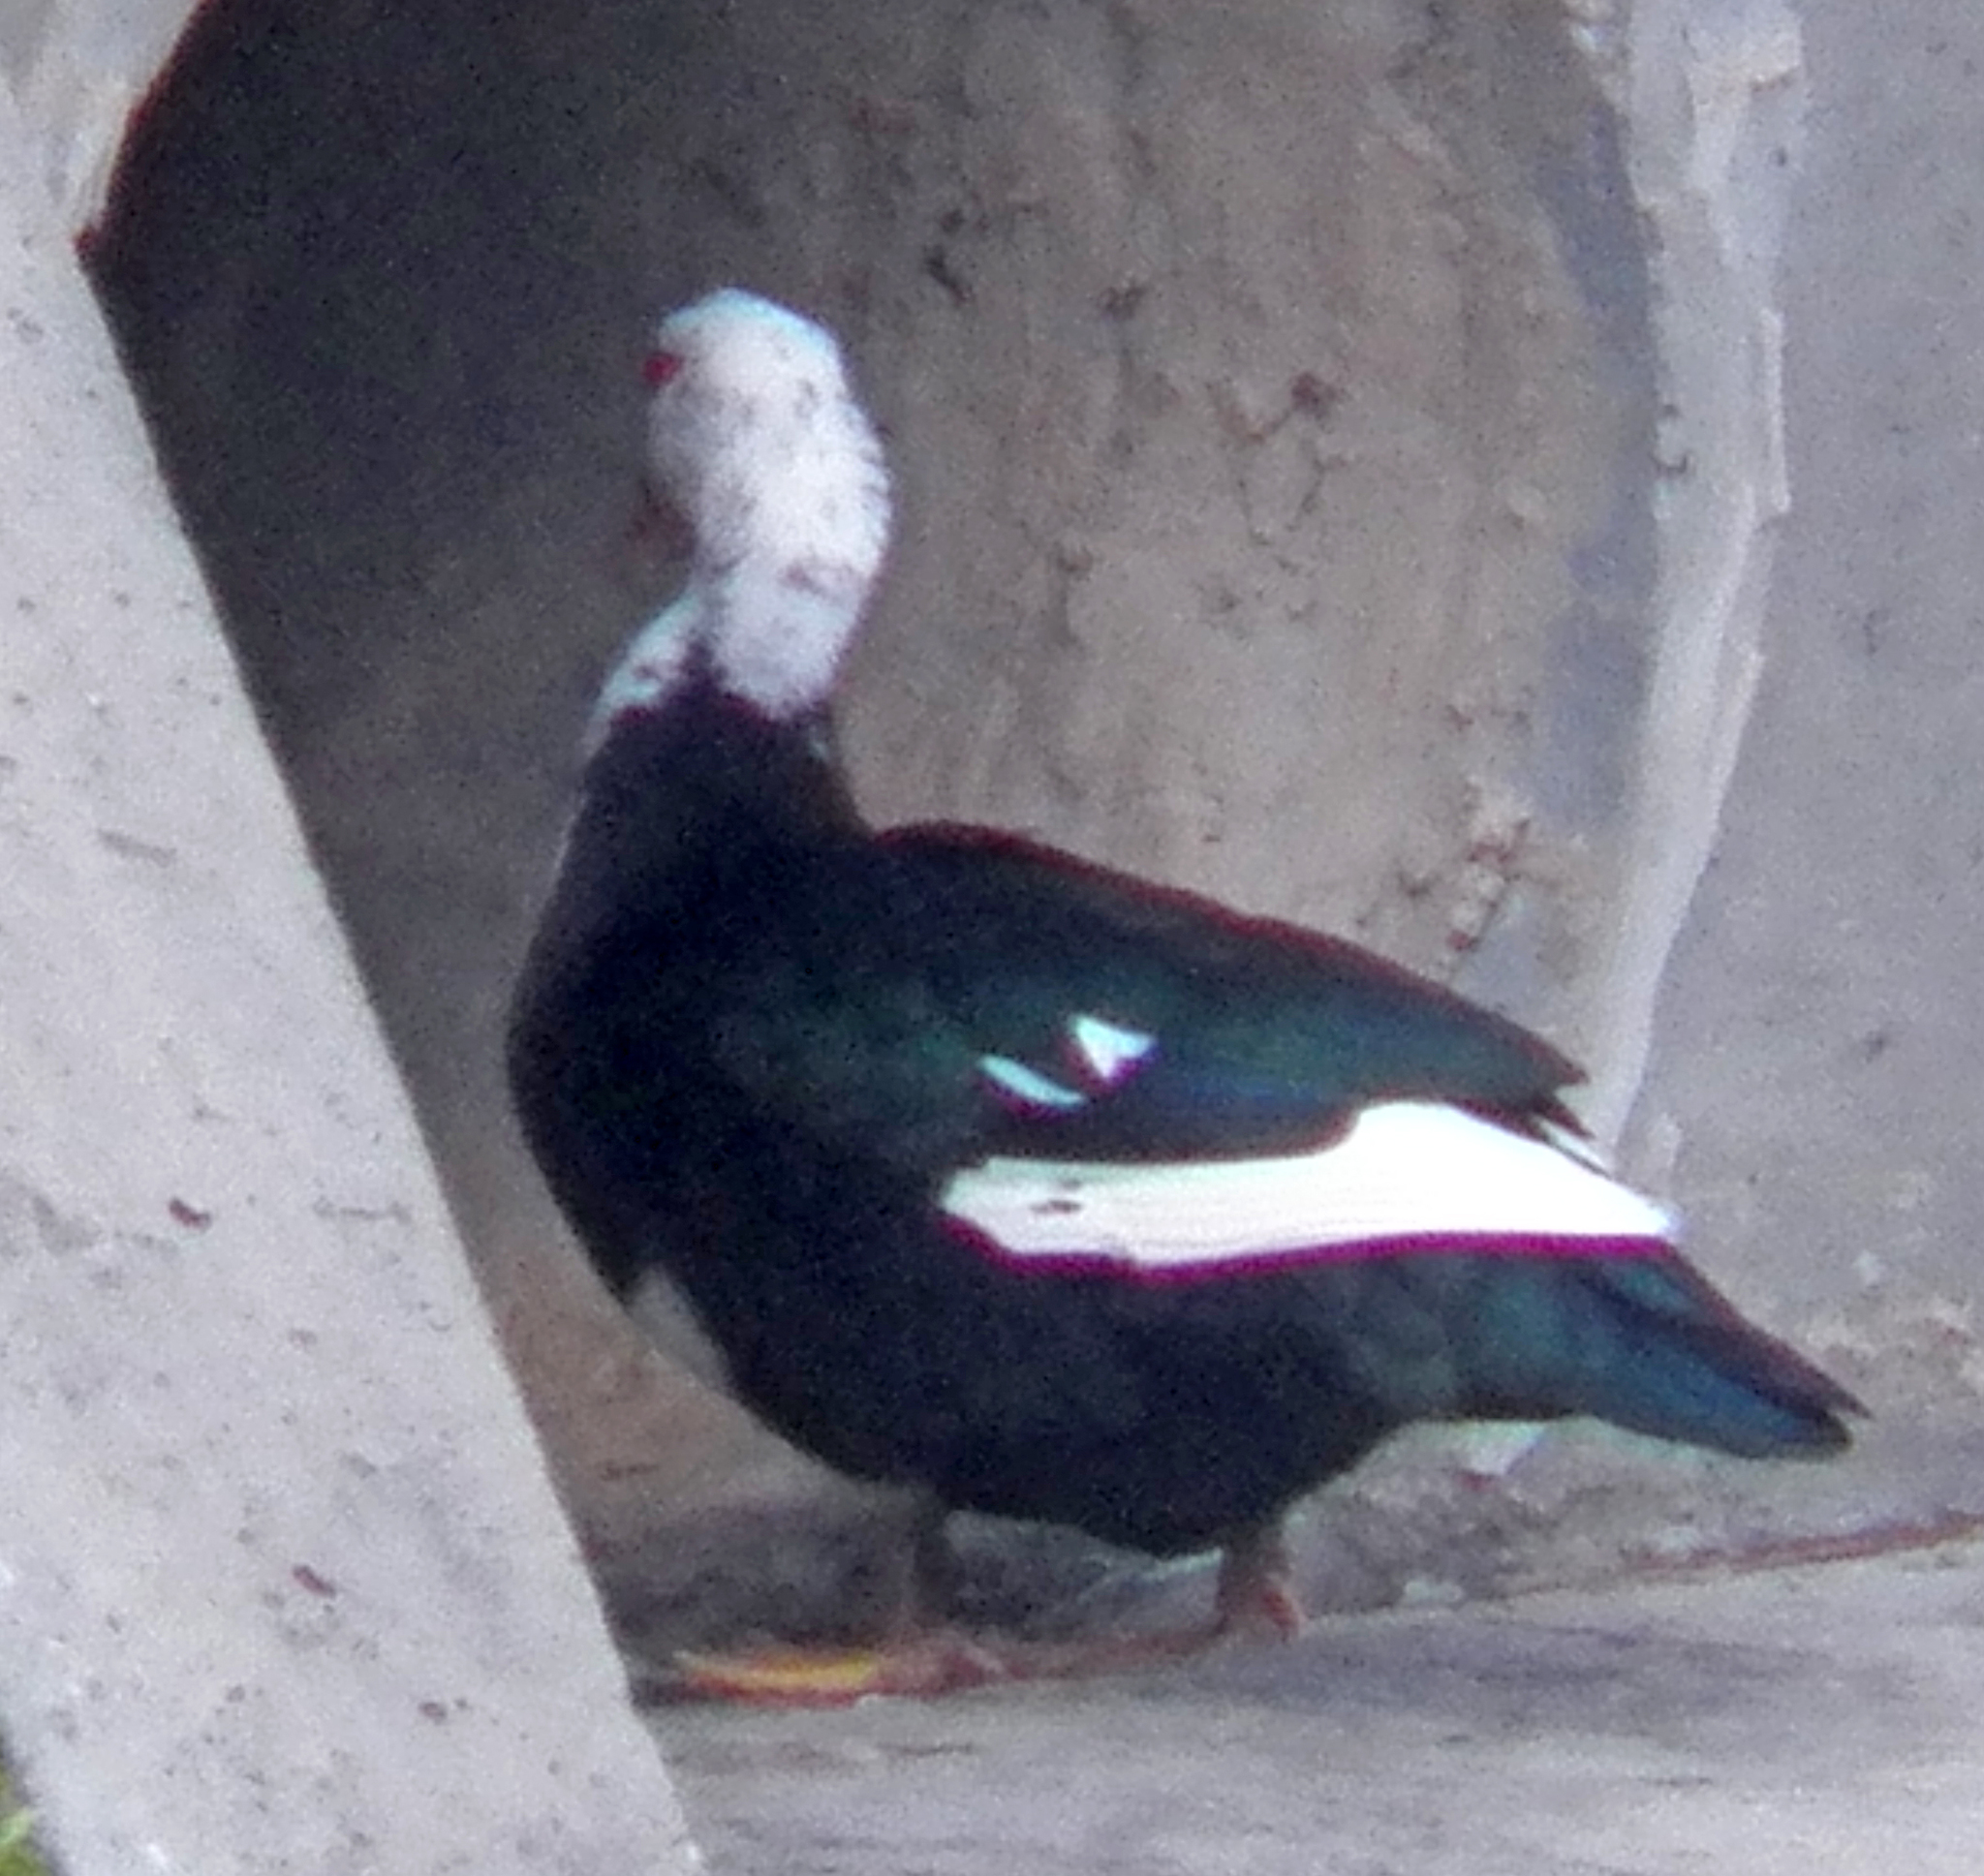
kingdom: Animalia
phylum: Chordata
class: Aves
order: Anseriformes
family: Anatidae
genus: Cairina
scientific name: Cairina moschata
